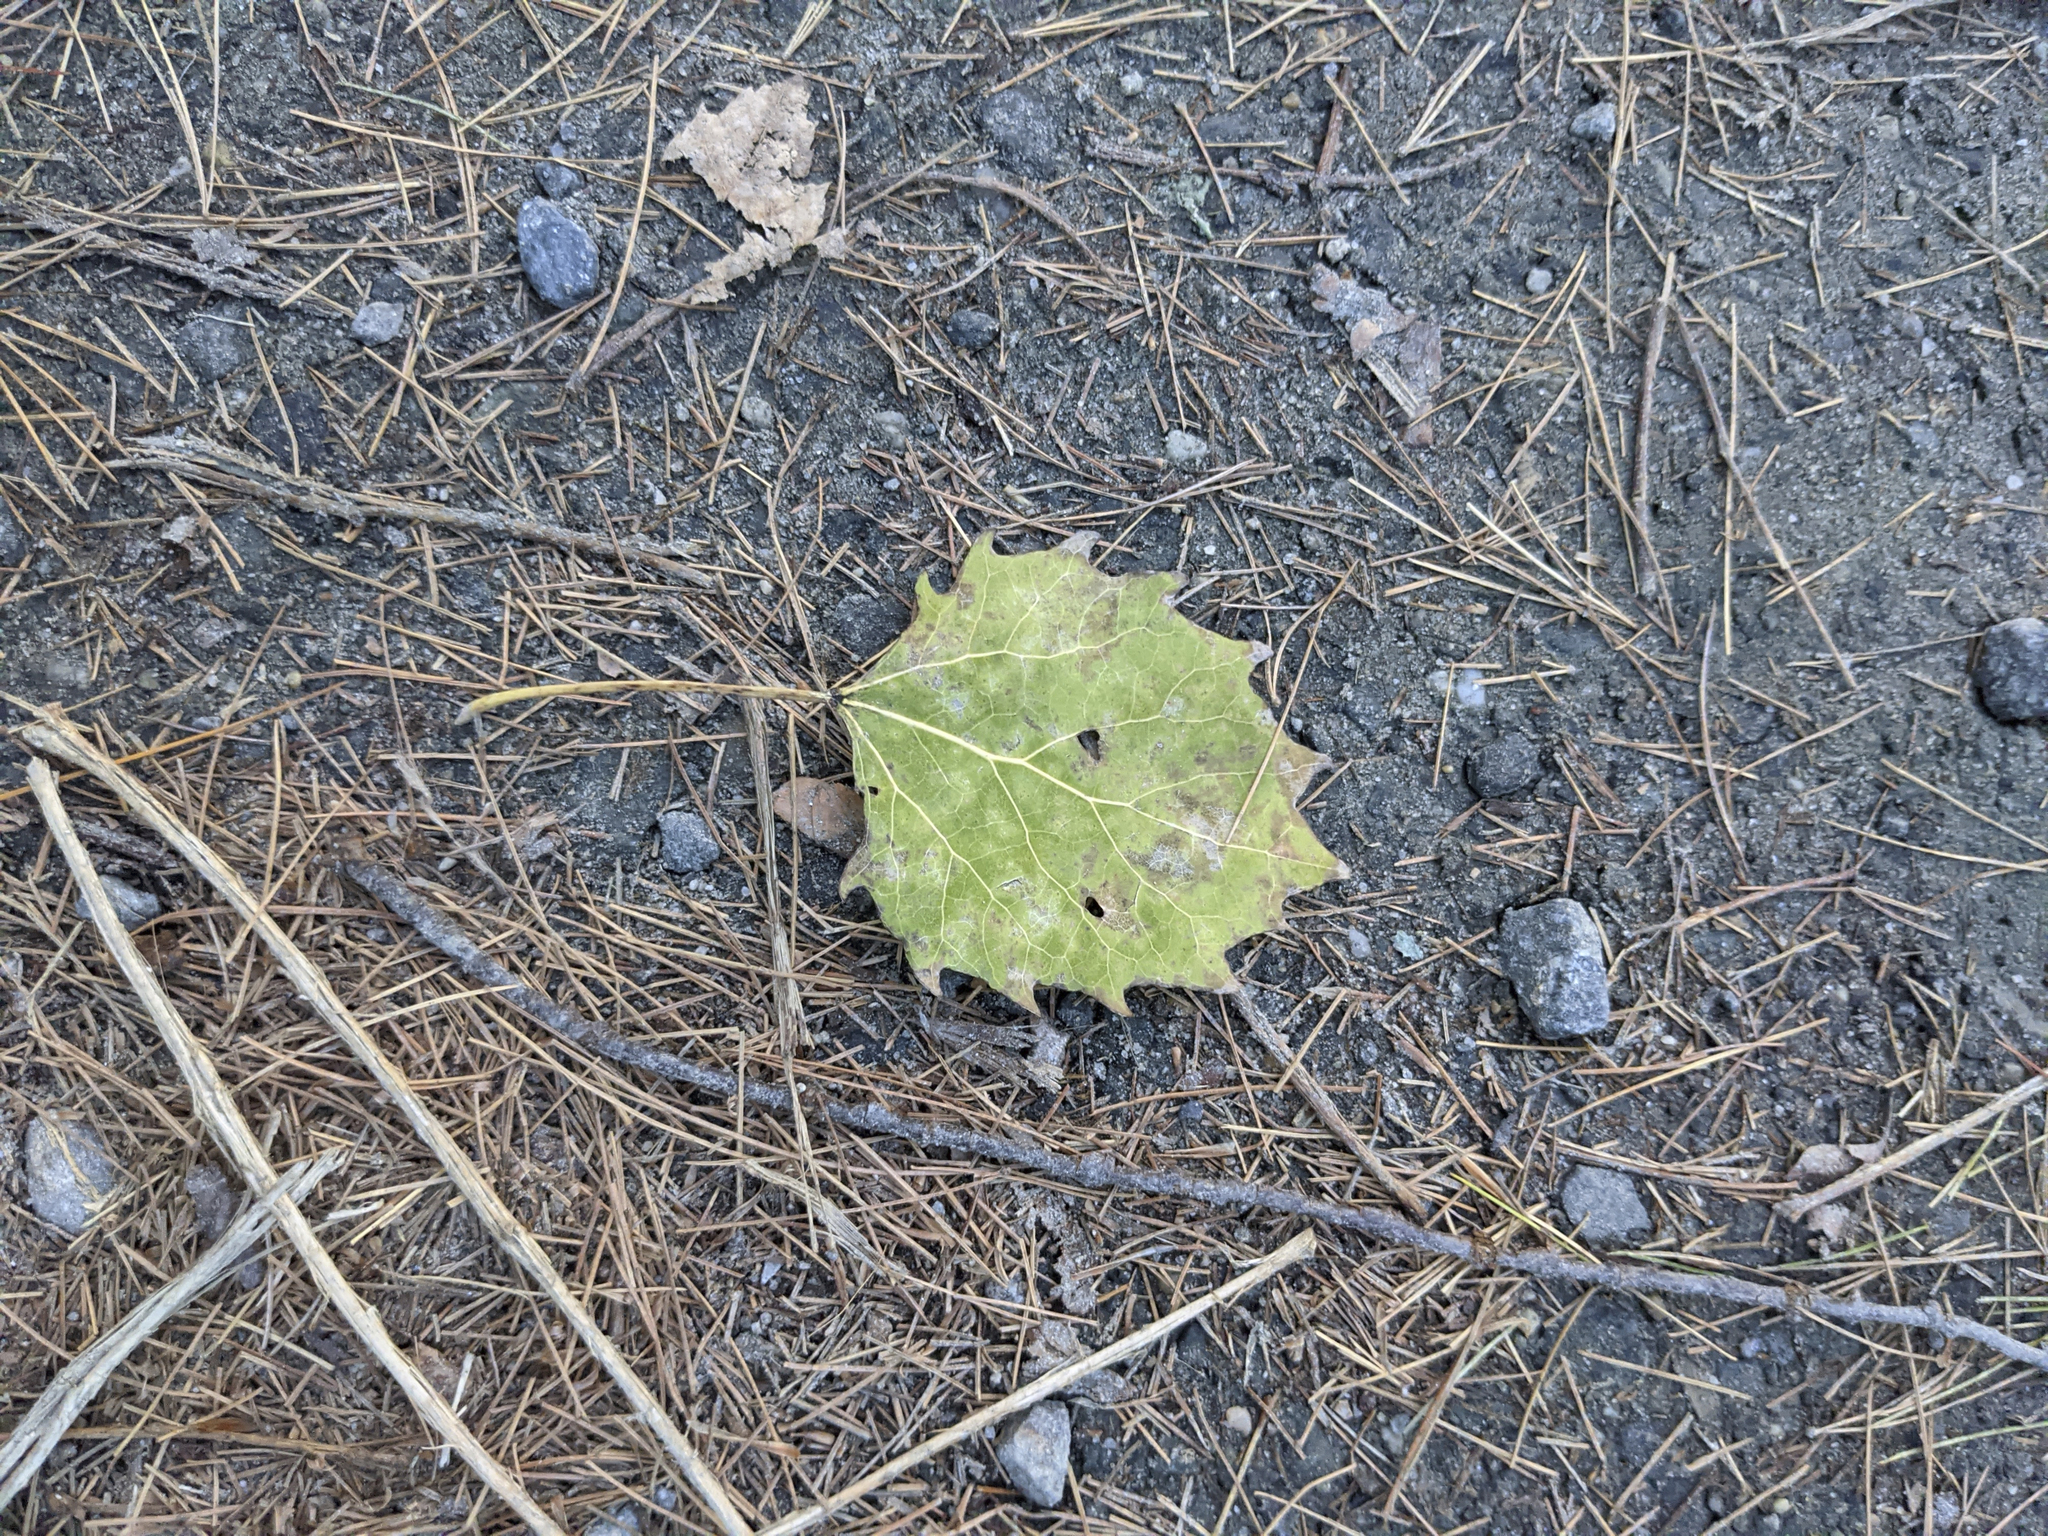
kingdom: Plantae
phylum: Tracheophyta
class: Magnoliopsida
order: Malpighiales
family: Salicaceae
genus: Populus
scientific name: Populus grandidentata
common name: Bigtooth aspen
